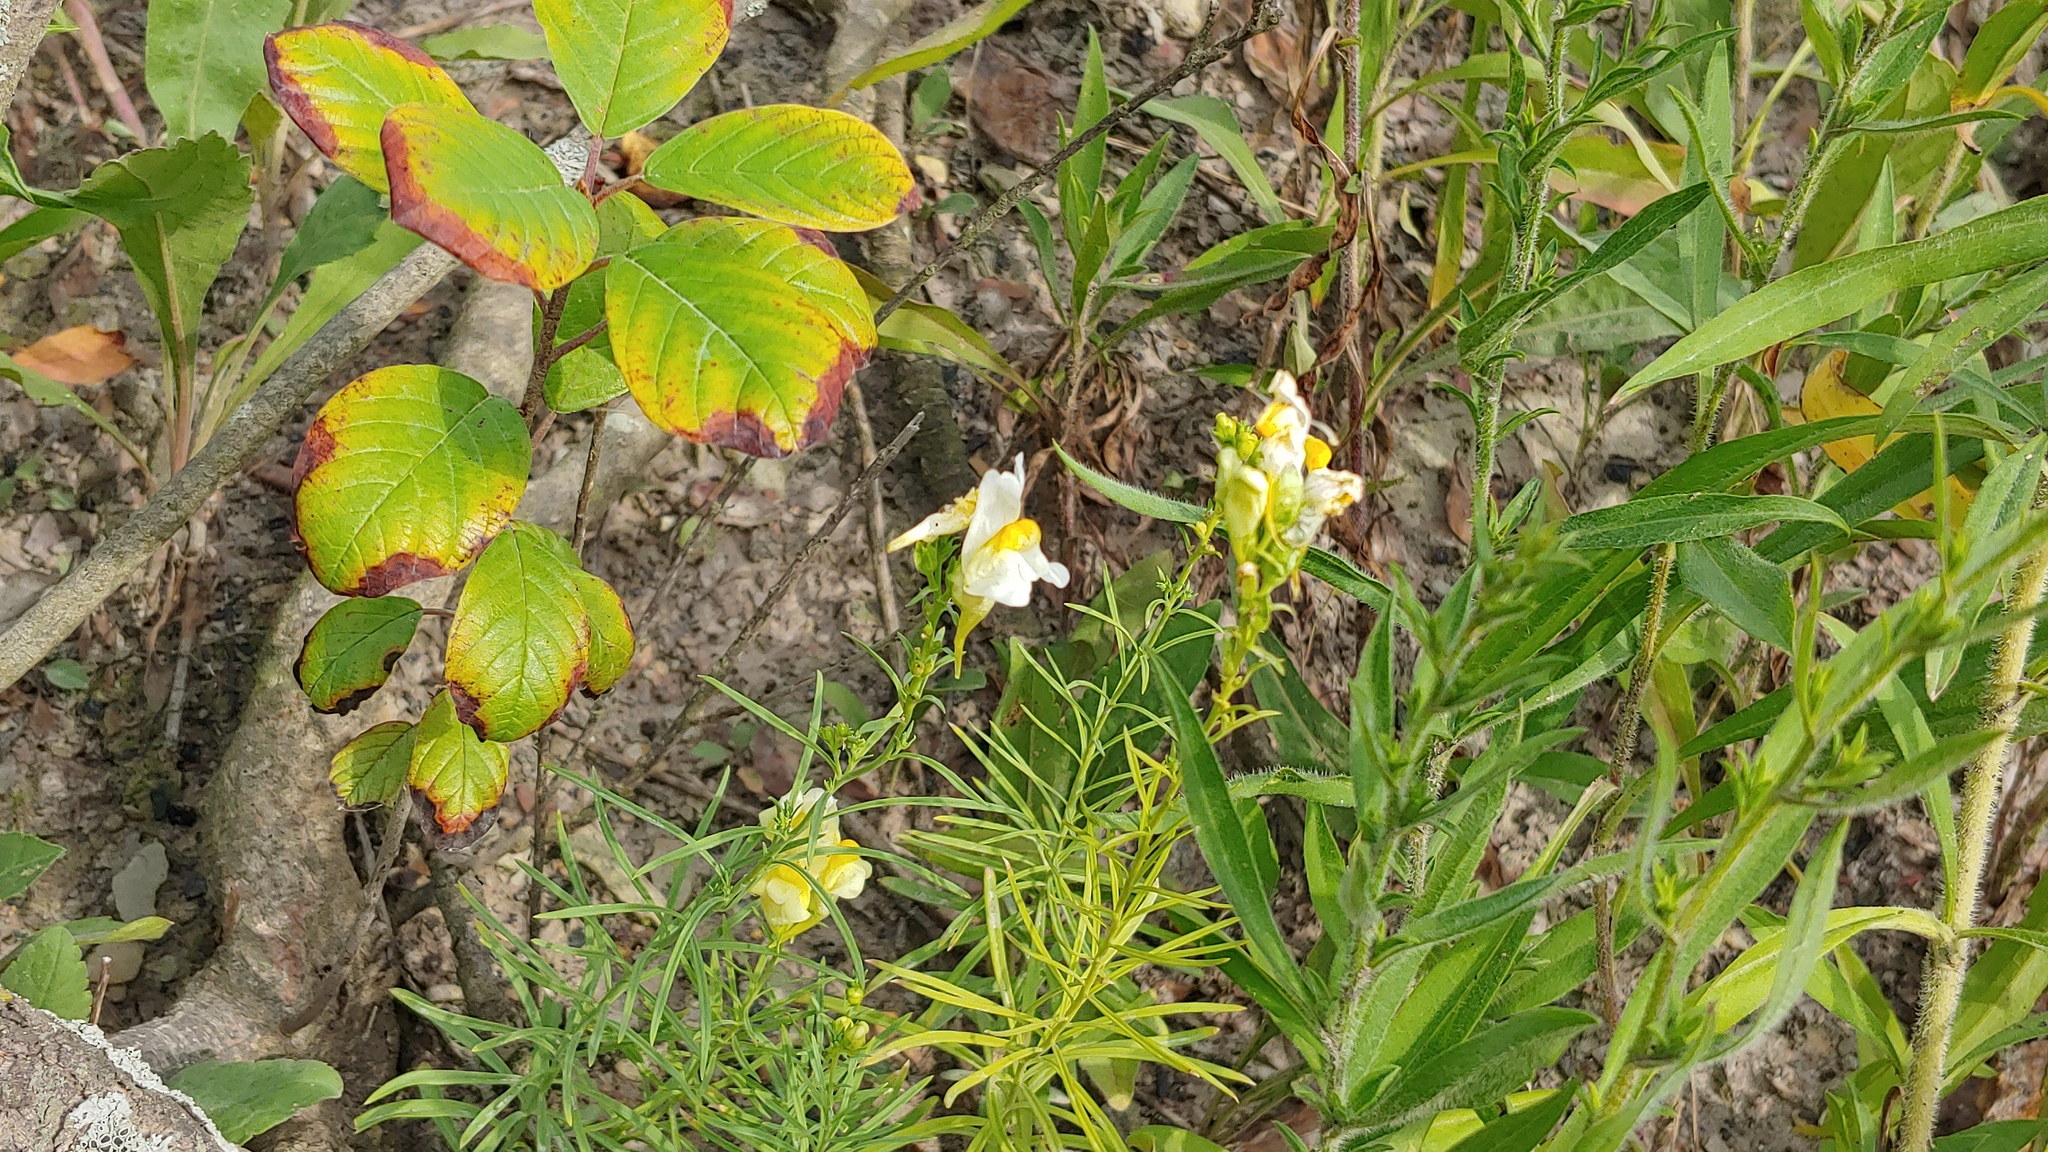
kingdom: Plantae
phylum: Tracheophyta
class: Magnoliopsida
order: Lamiales
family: Plantaginaceae
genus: Linaria
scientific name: Linaria vulgaris
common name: Butter and eggs
